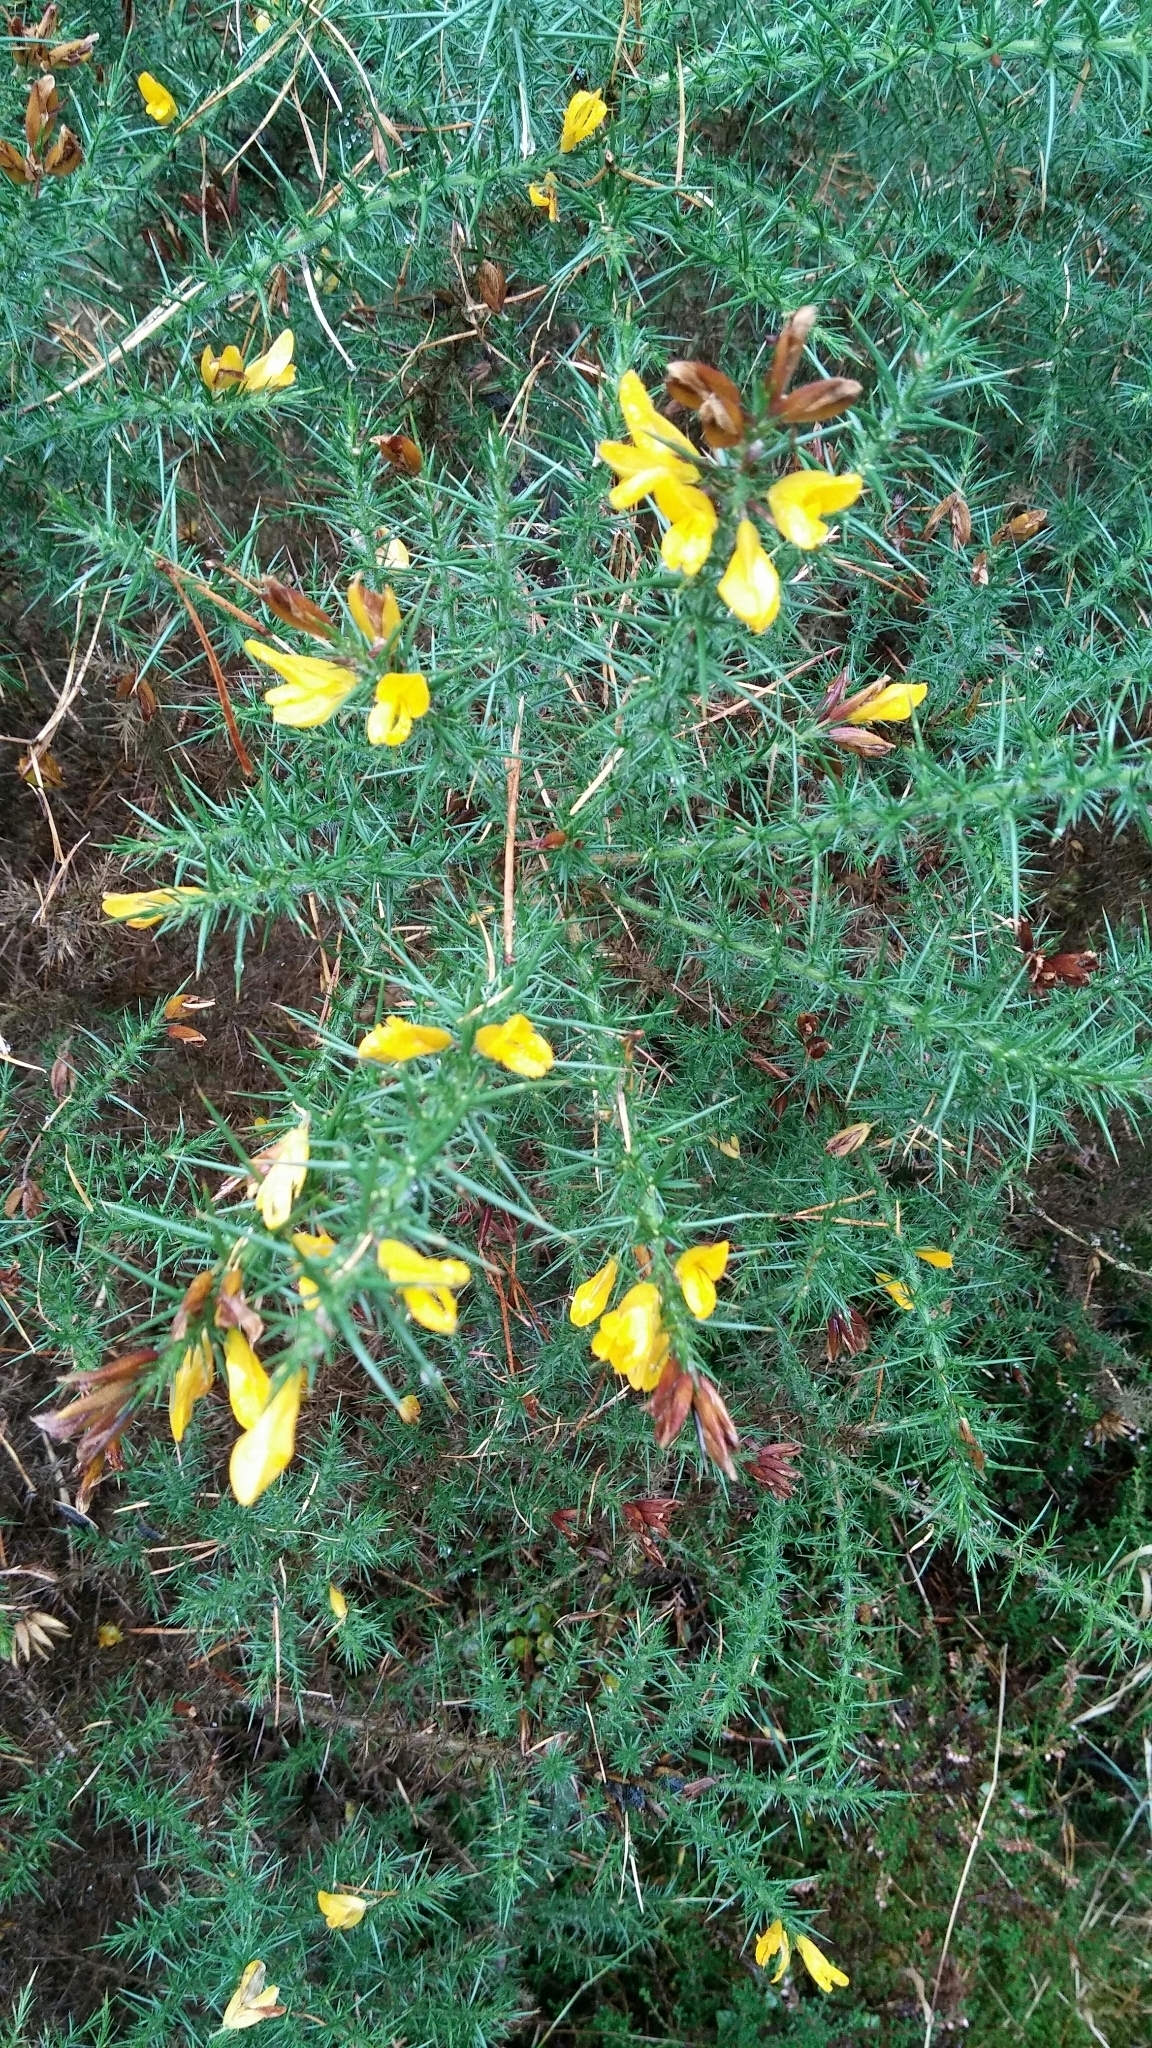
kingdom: Plantae
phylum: Tracheophyta
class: Magnoliopsida
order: Fabales
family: Fabaceae
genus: Ulex
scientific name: Ulex europaeus
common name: Common gorse
